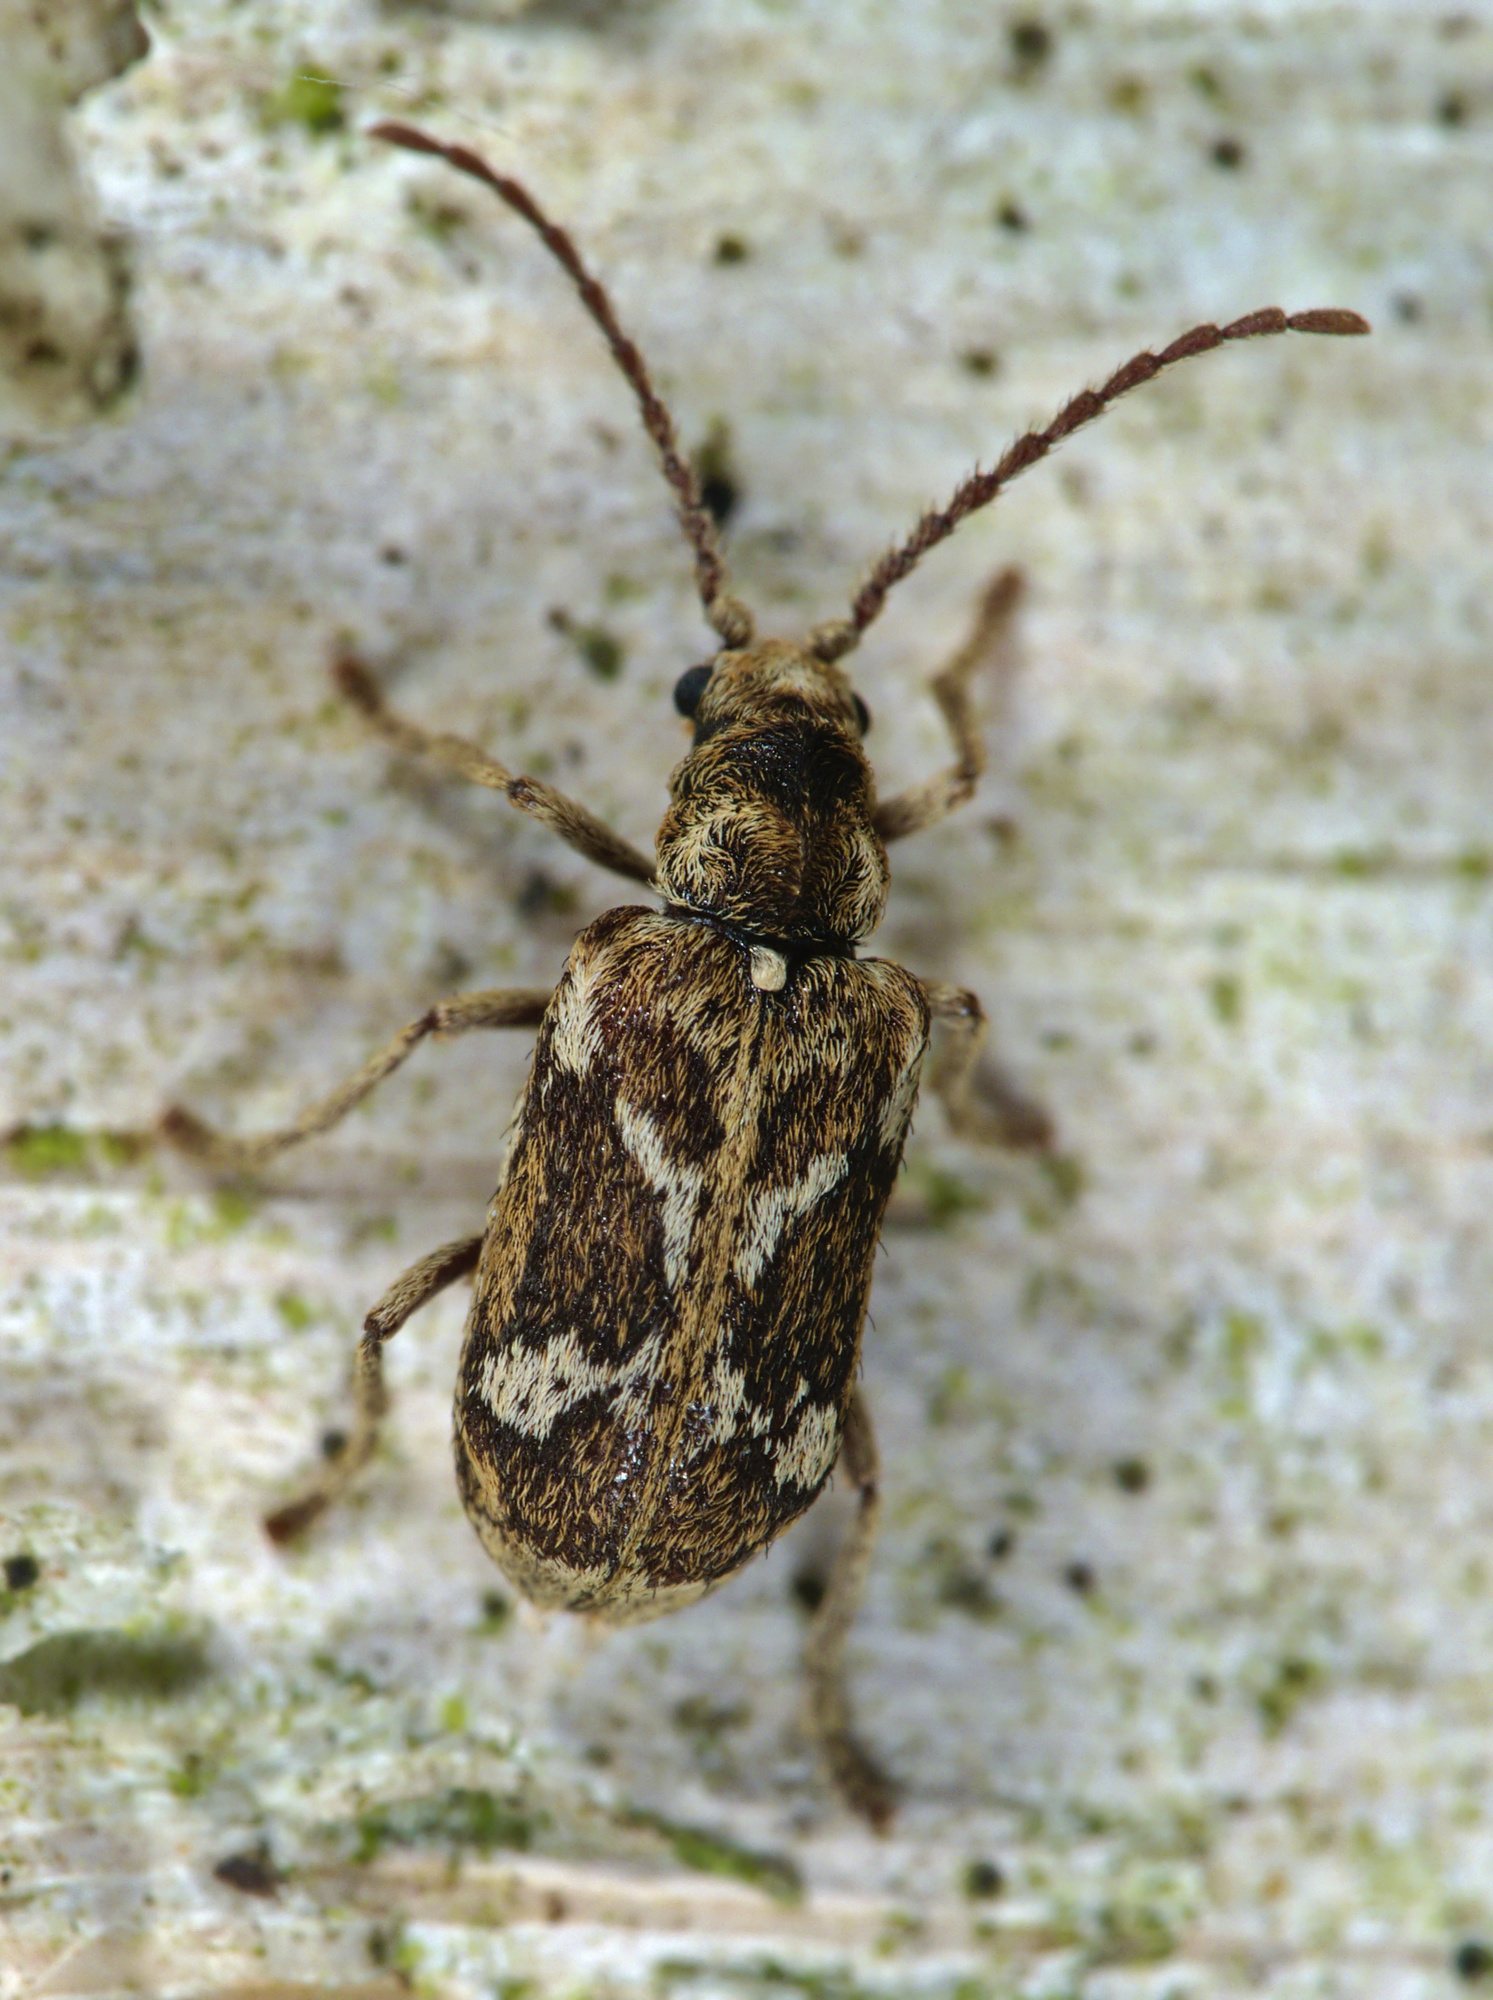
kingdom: Animalia
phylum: Arthropoda
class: Insecta
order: Coleoptera
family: Anobiidae
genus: Ptinomorphus
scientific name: Ptinomorphus imperialis
